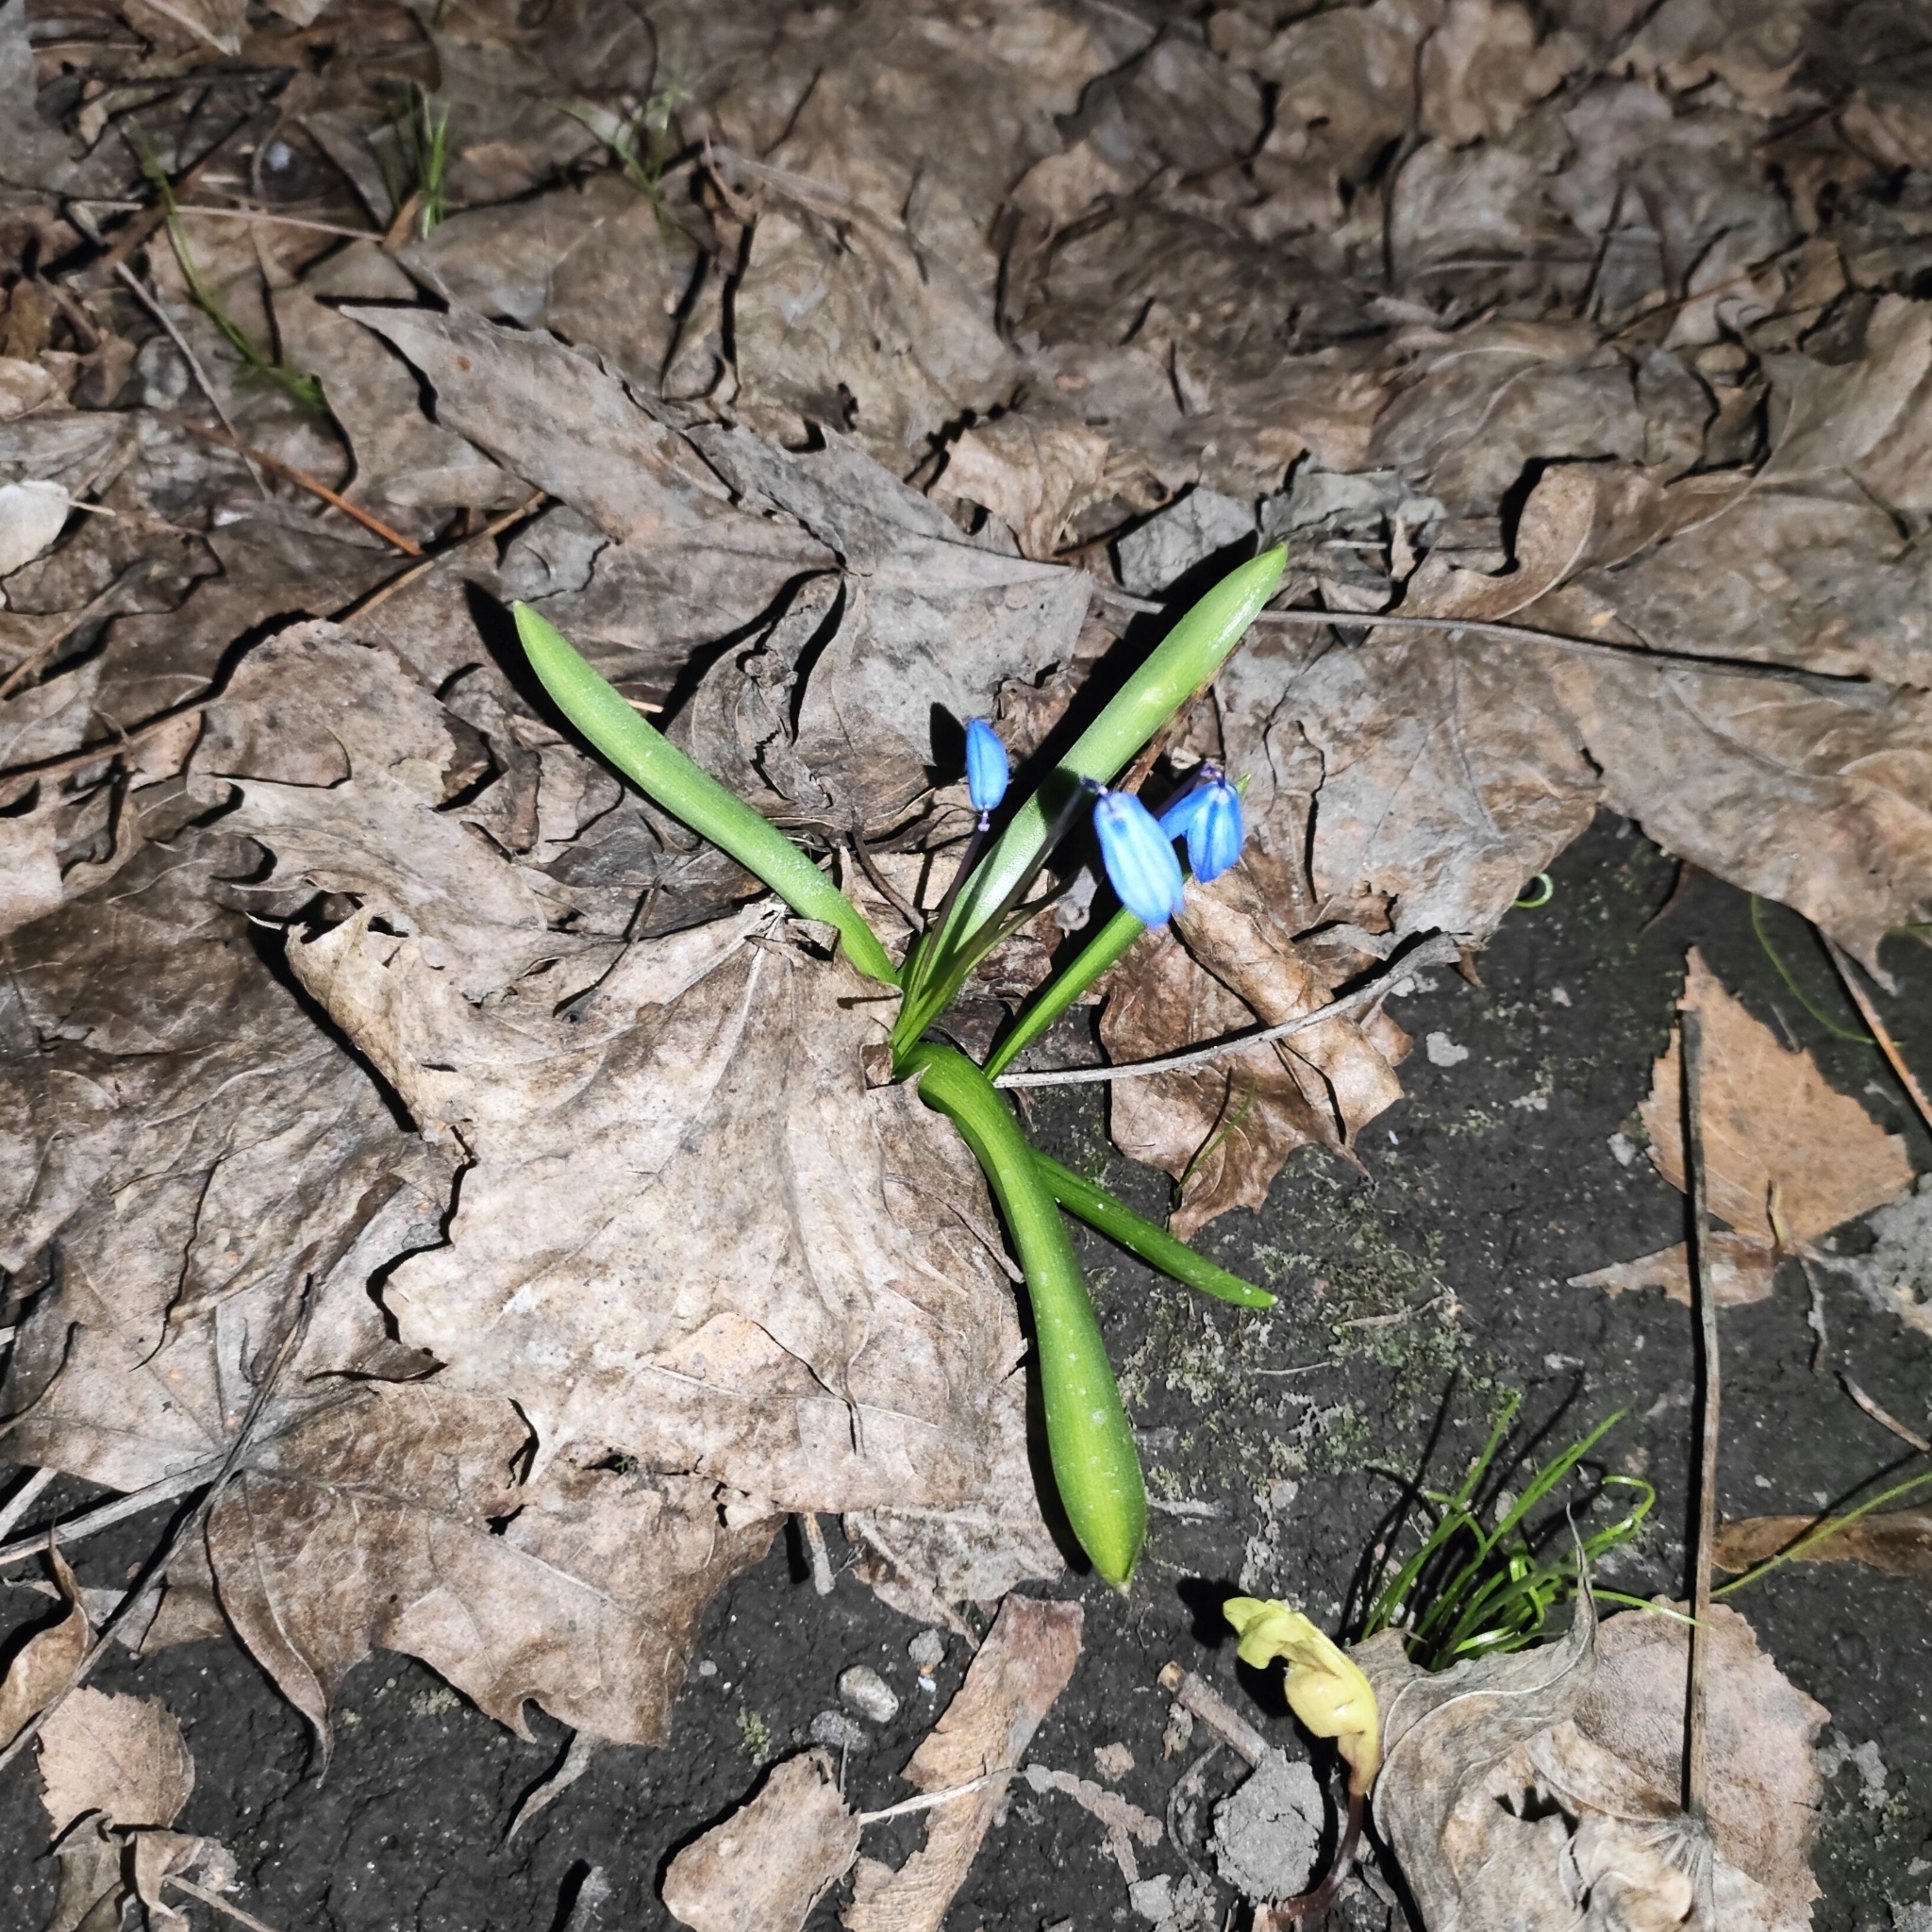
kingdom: Plantae
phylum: Tracheophyta
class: Liliopsida
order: Asparagales
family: Asparagaceae
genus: Scilla
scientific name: Scilla siberica
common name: Siberian squill
